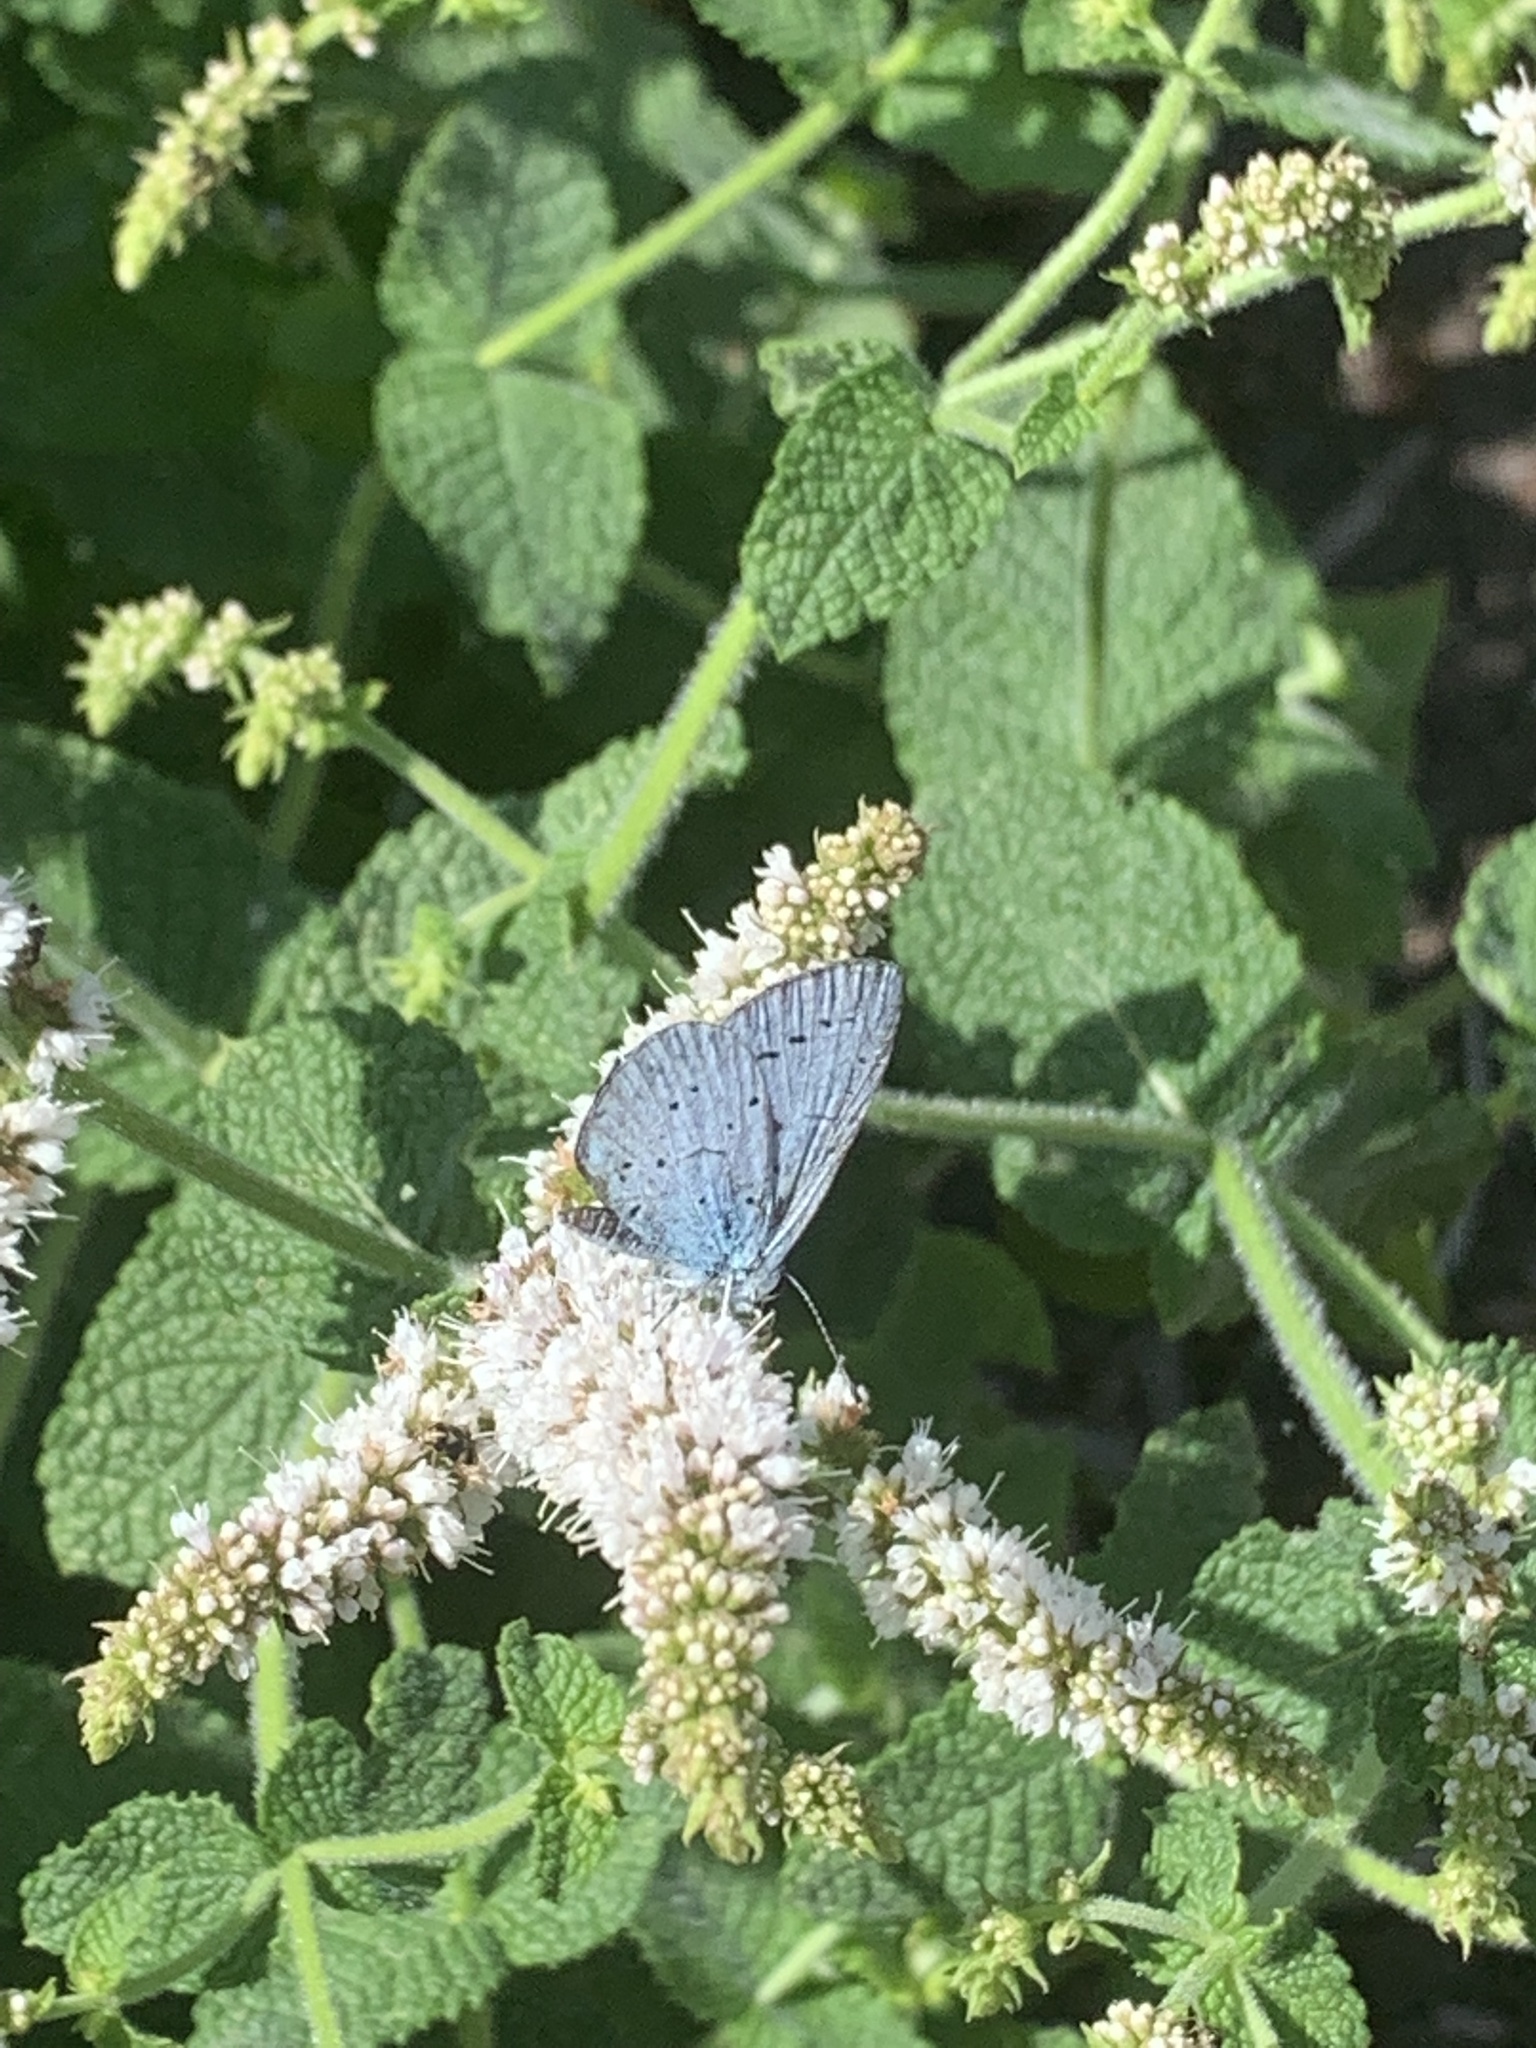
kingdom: Animalia
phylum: Arthropoda
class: Insecta
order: Lepidoptera
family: Lycaenidae
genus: Celastrina
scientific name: Celastrina argiolus
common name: Holly blue
